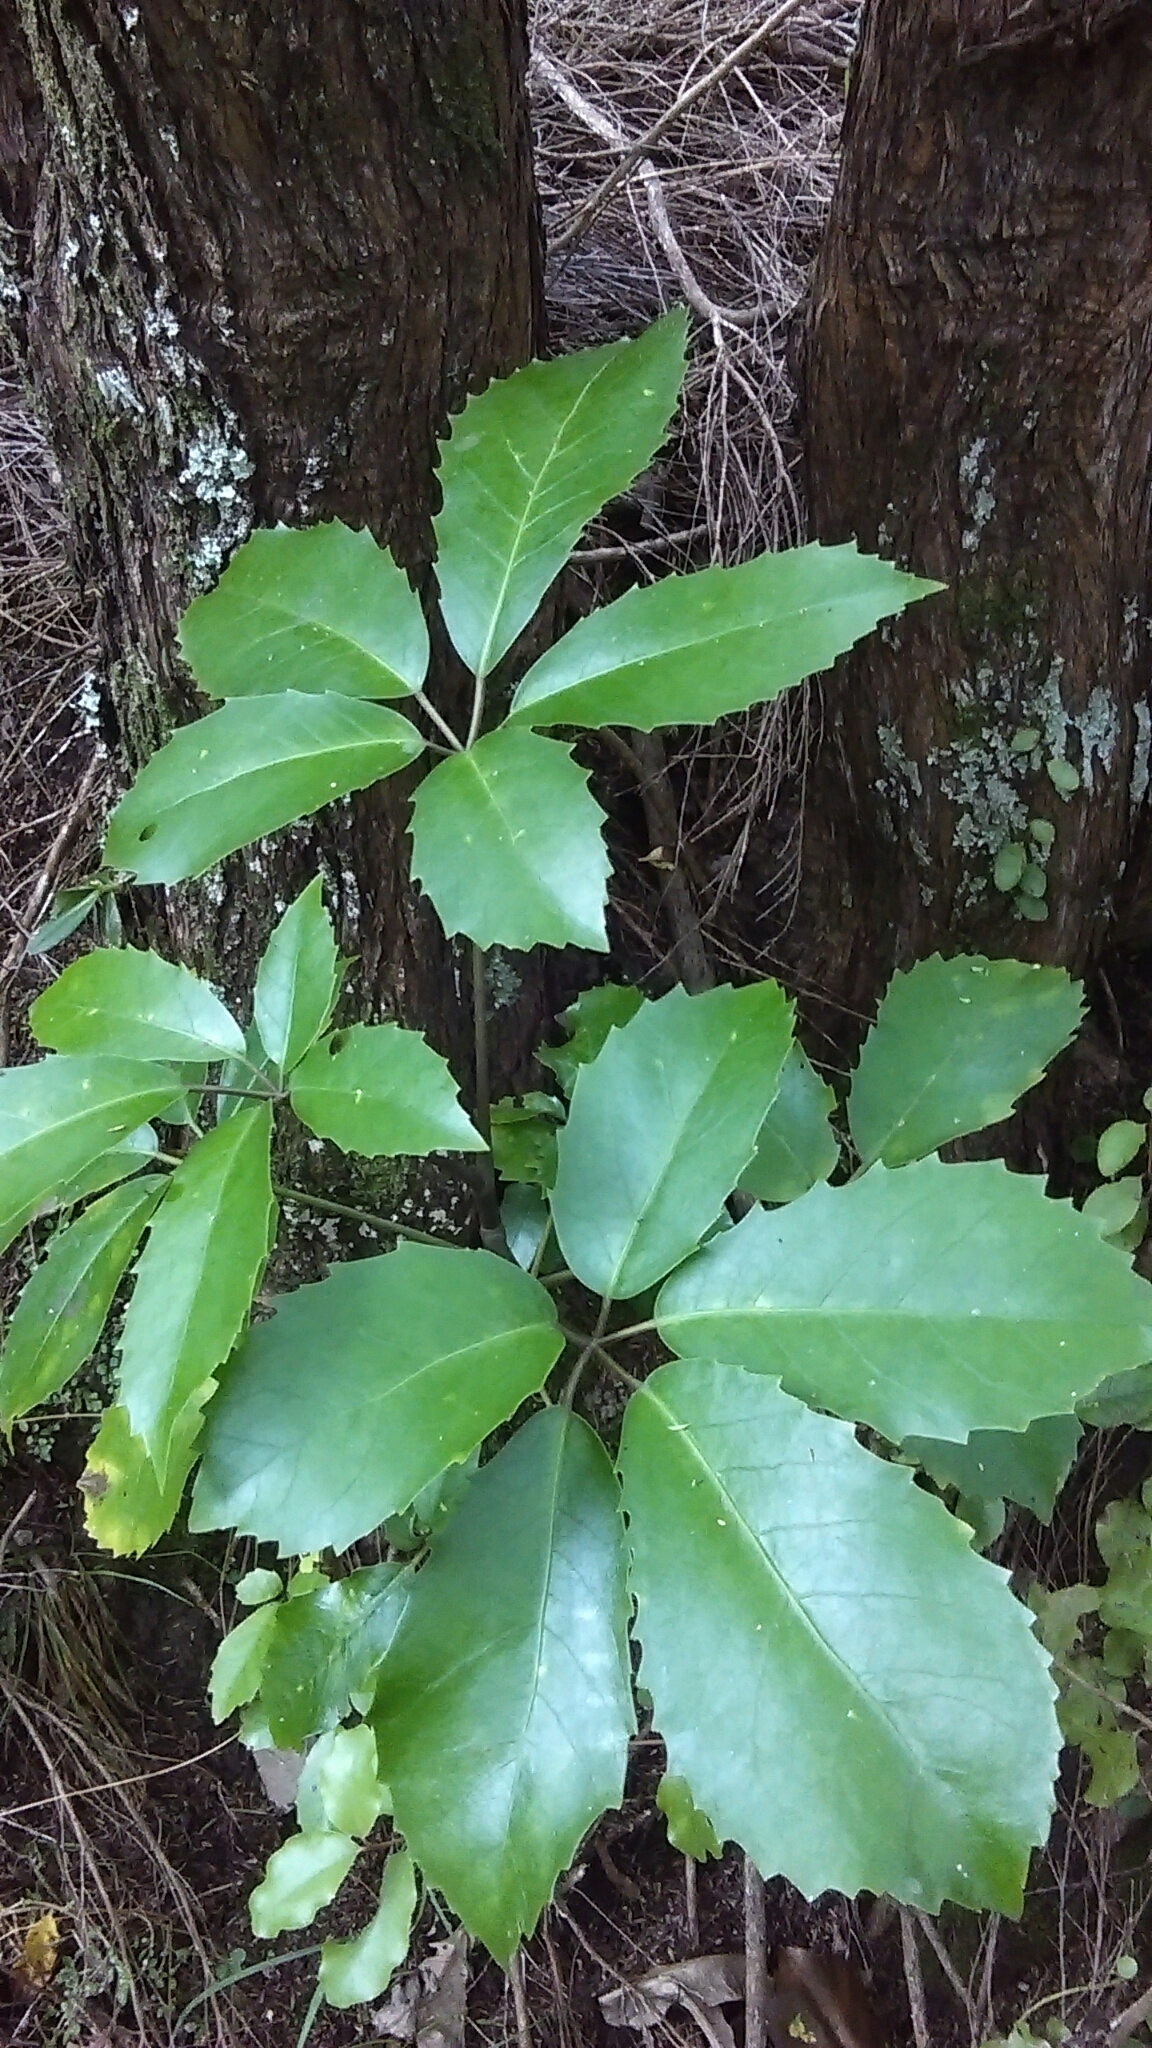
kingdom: Plantae
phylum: Tracheophyta
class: Magnoliopsida
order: Apiales
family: Araliaceae
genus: Neopanax
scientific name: Neopanax arboreus
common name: Five-fingers
